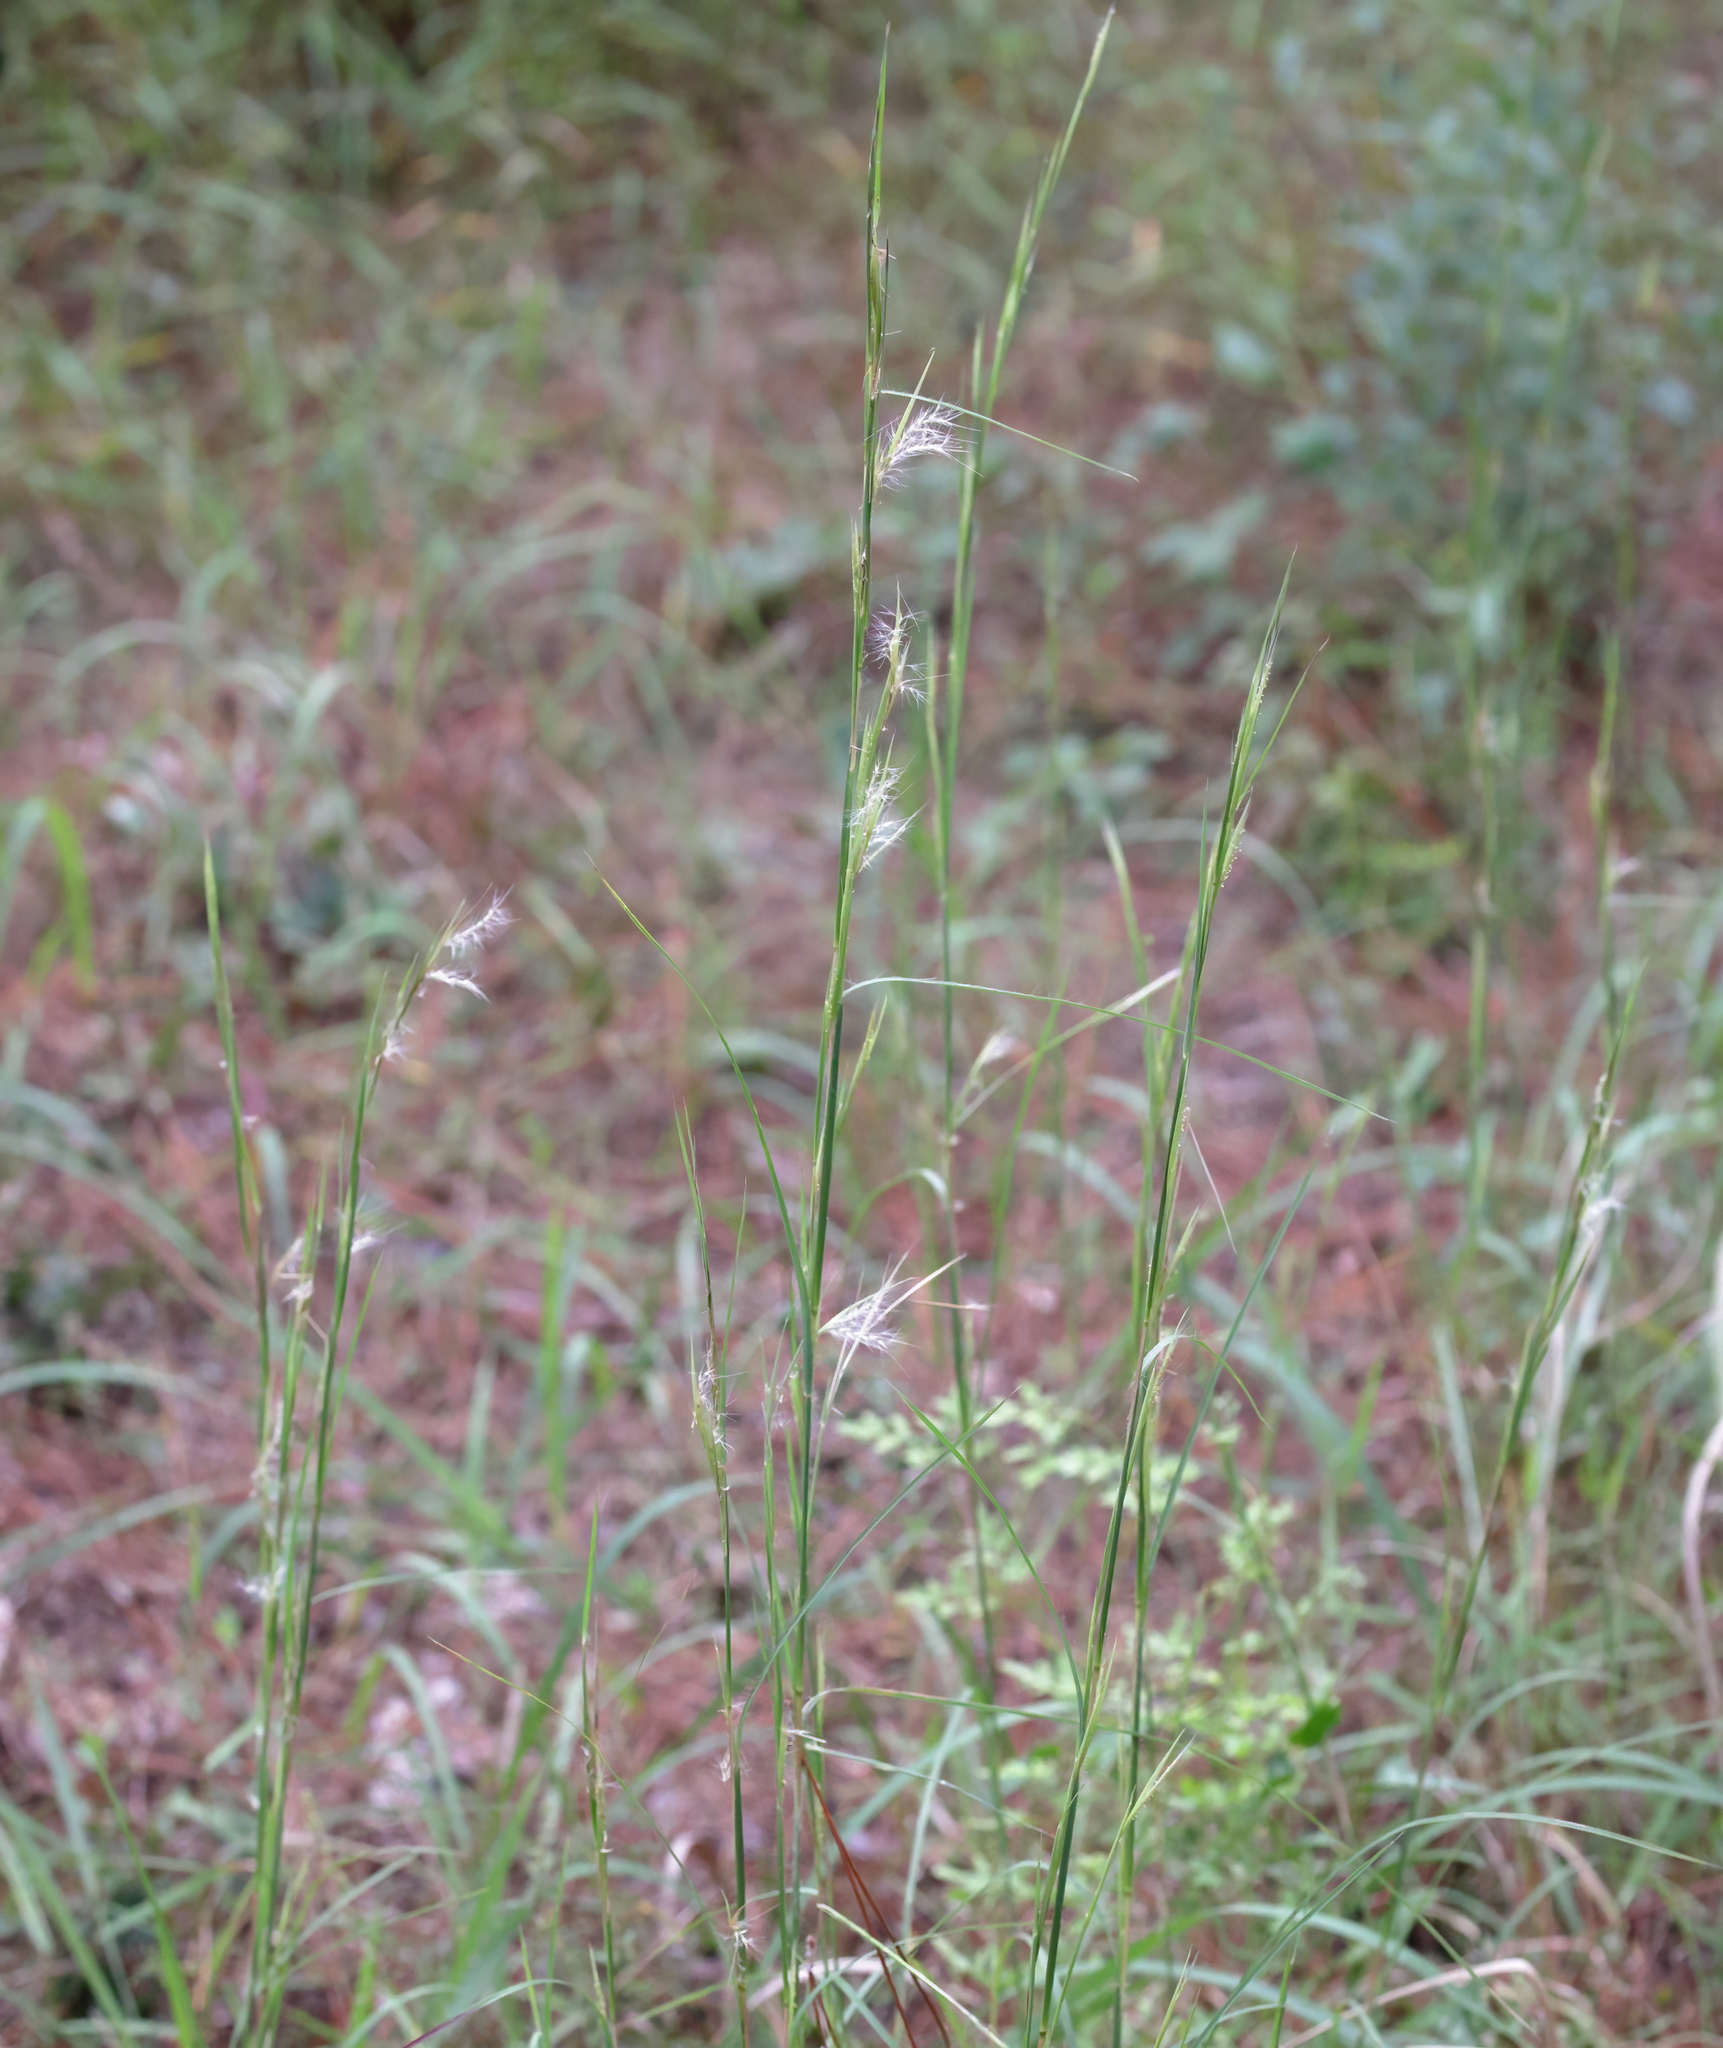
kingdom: Plantae
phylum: Tracheophyta
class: Liliopsida
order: Poales
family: Poaceae
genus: Andropogon
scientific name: Andropogon ternarius
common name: Split bluestem
